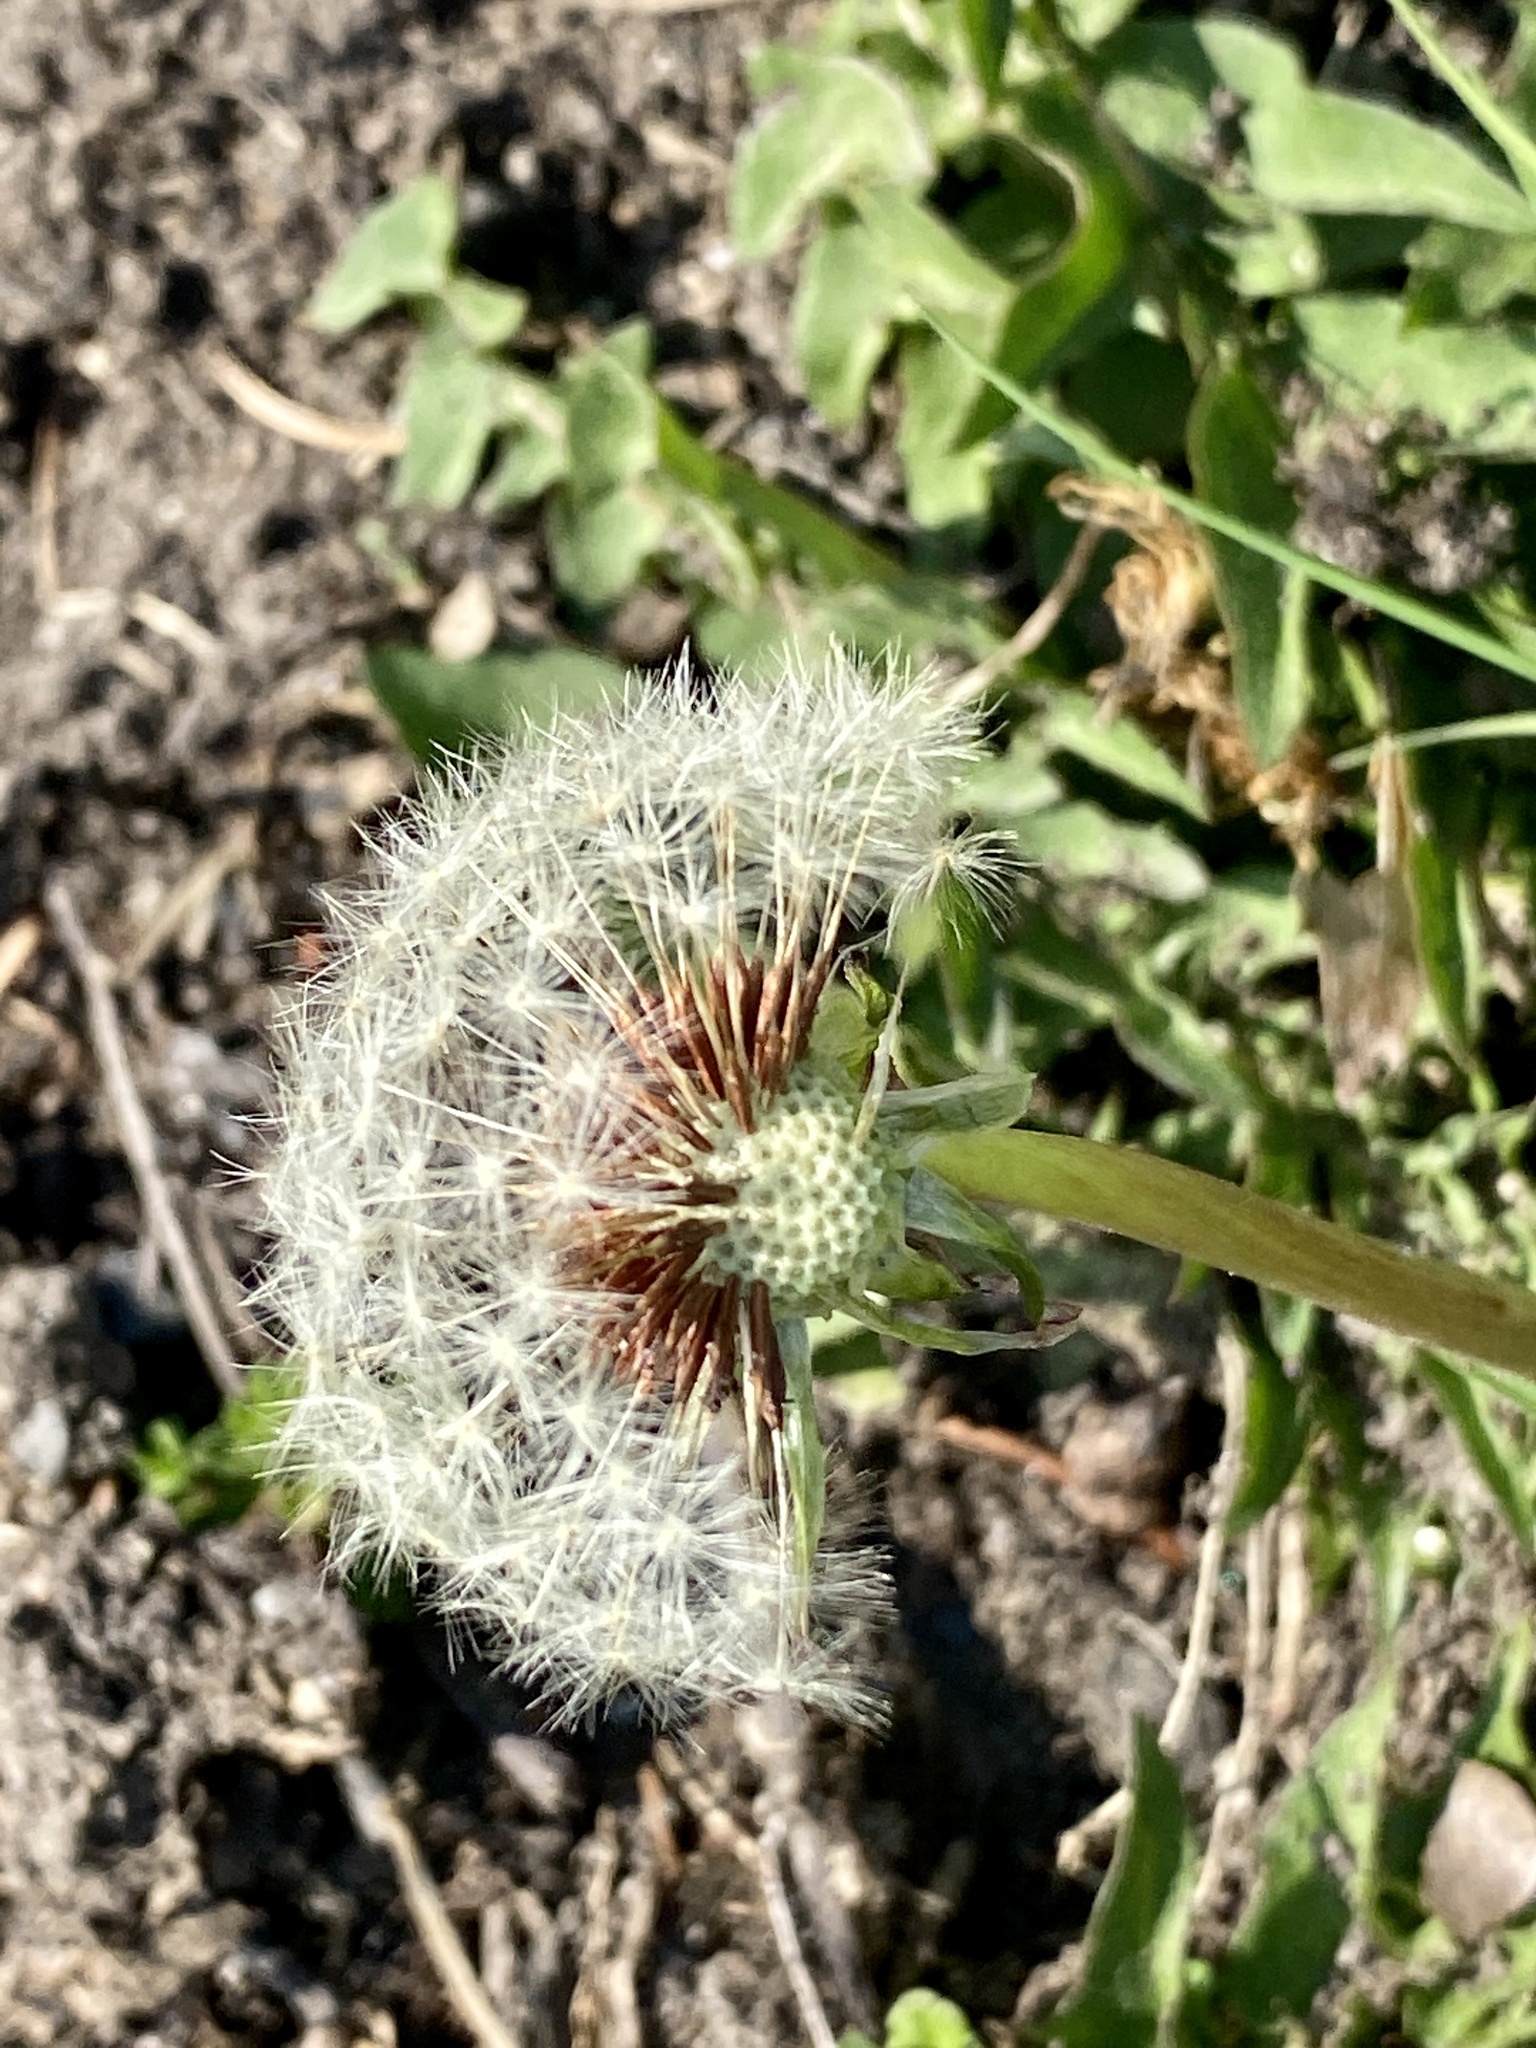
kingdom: Plantae
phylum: Tracheophyta
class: Magnoliopsida
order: Asterales
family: Asteraceae
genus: Taraxacum
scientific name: Taraxacum officinale
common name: Common dandelion
